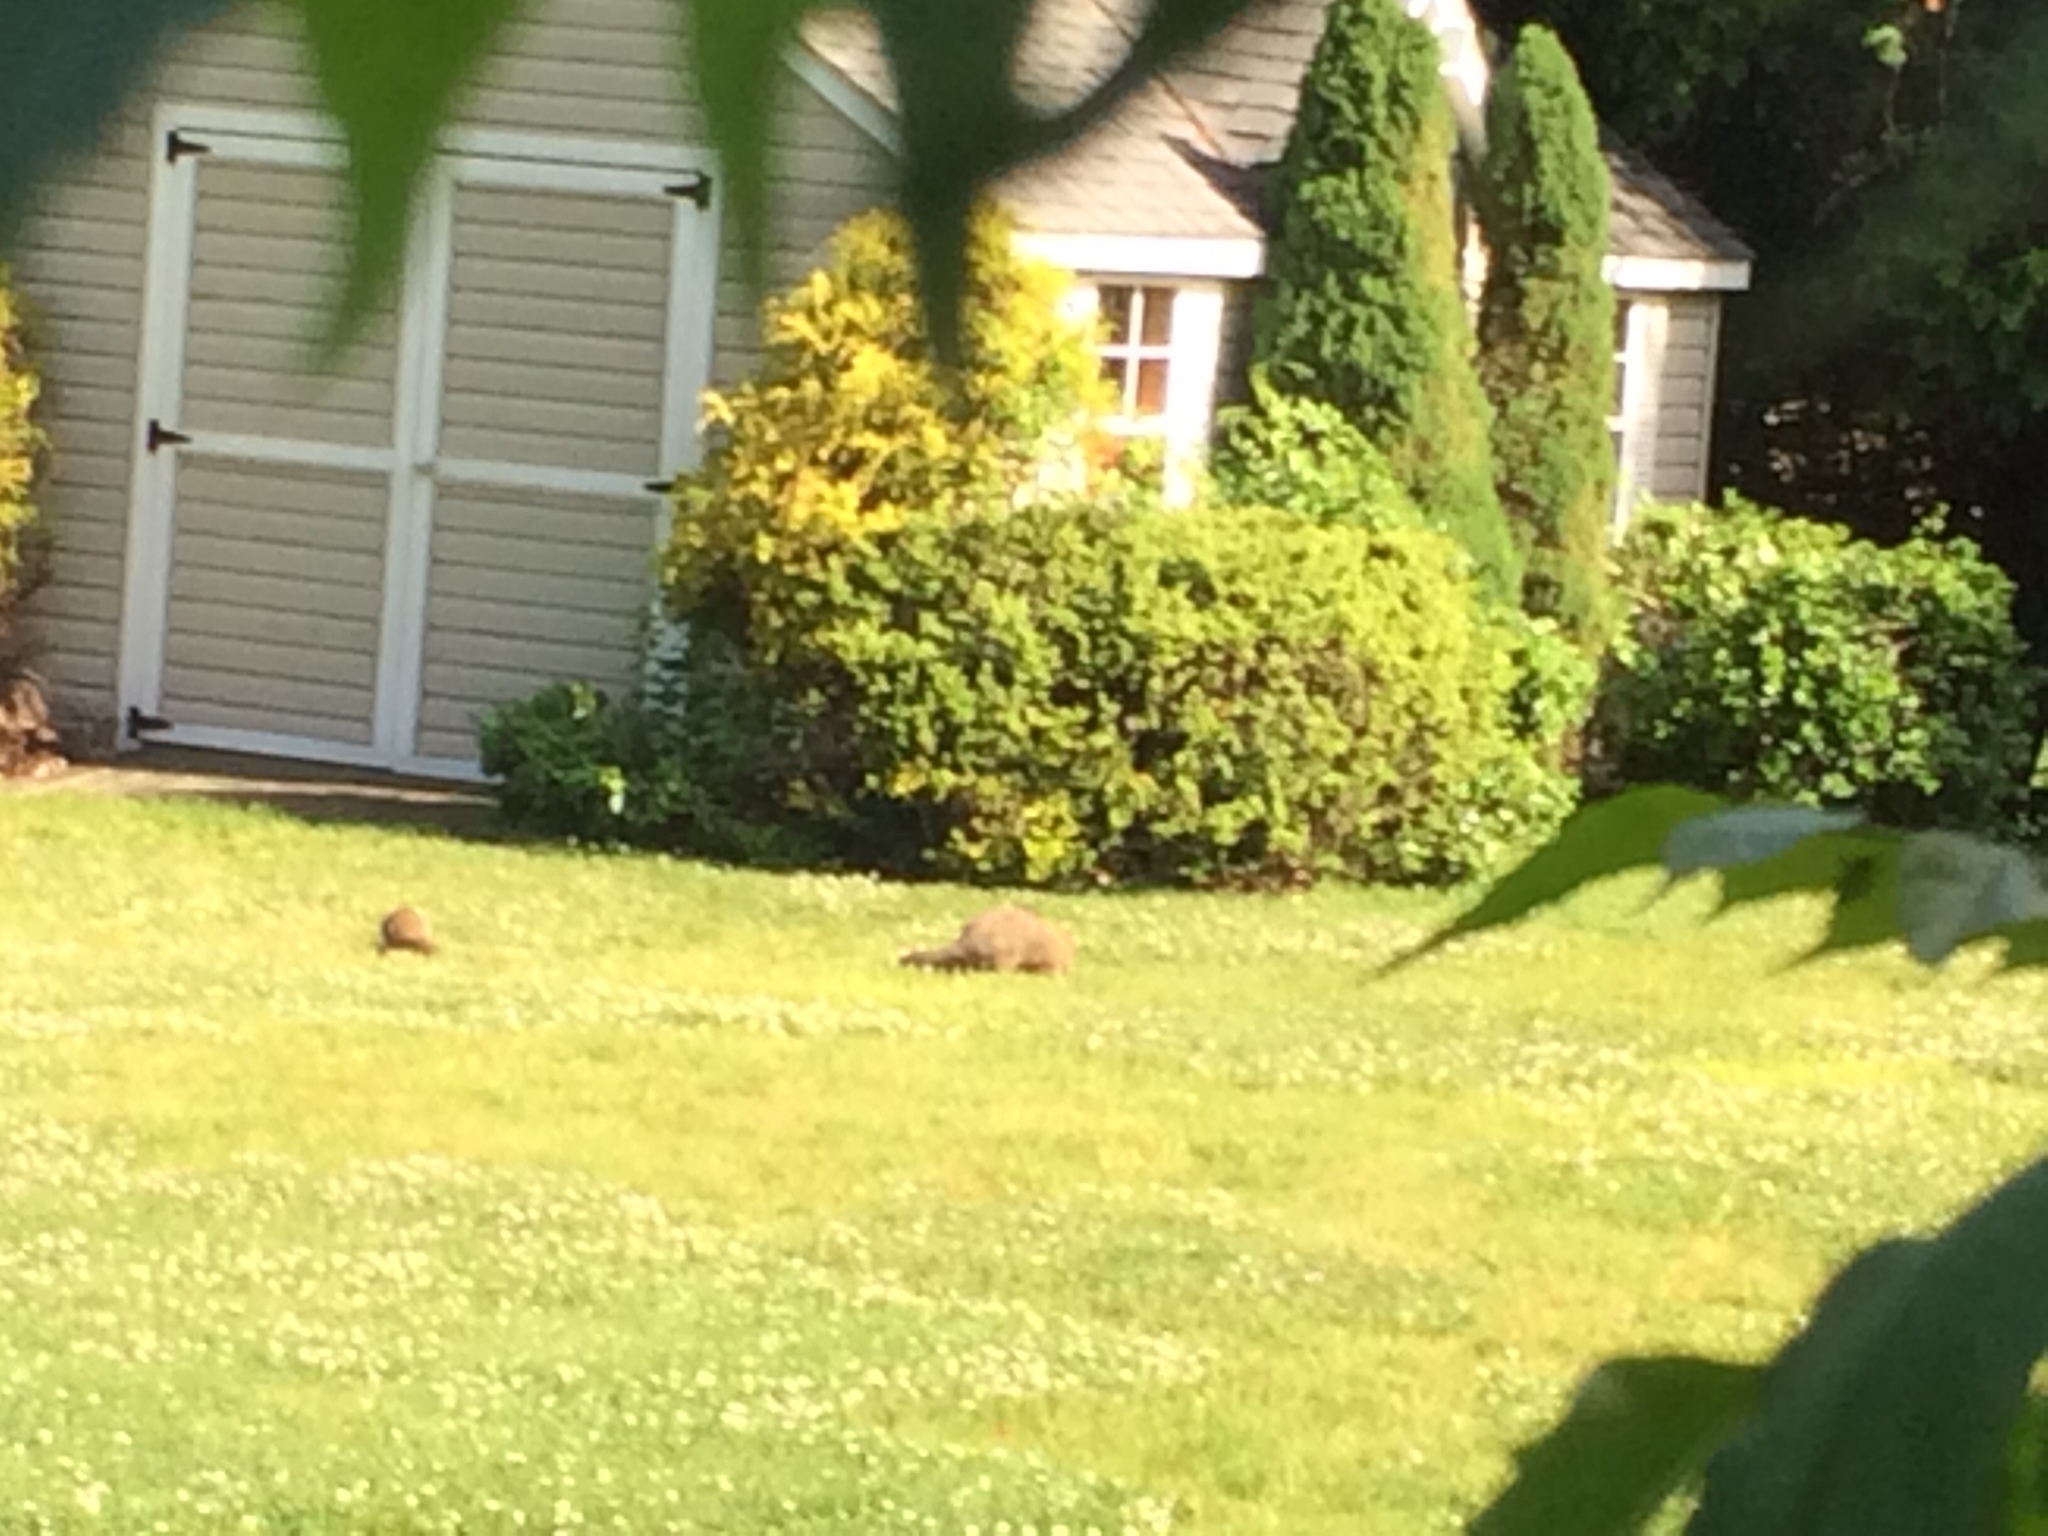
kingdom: Animalia
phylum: Chordata
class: Mammalia
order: Rodentia
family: Sciuridae
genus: Marmota
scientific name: Marmota monax
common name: Groundhog
